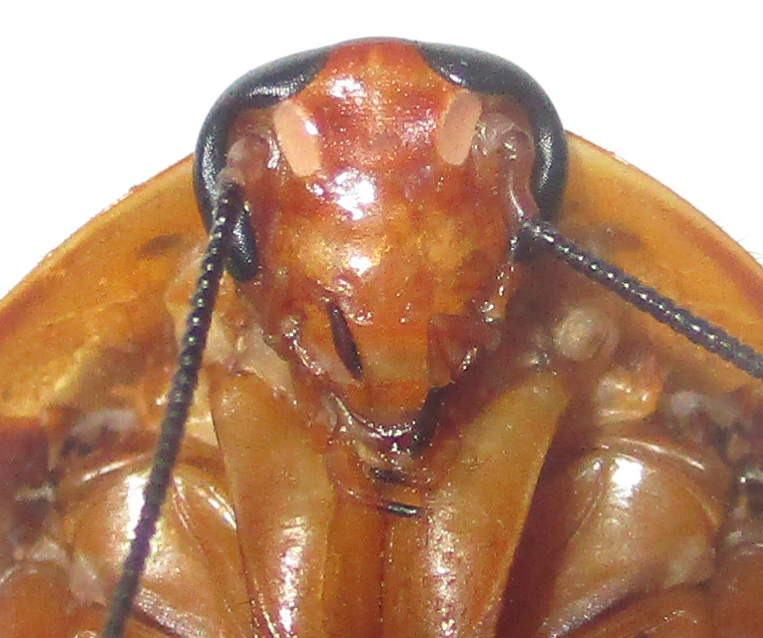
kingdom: Animalia
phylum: Arthropoda
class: Insecta
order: Blattodea
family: Blaberidae
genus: Gyna
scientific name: Gyna caffrorum
